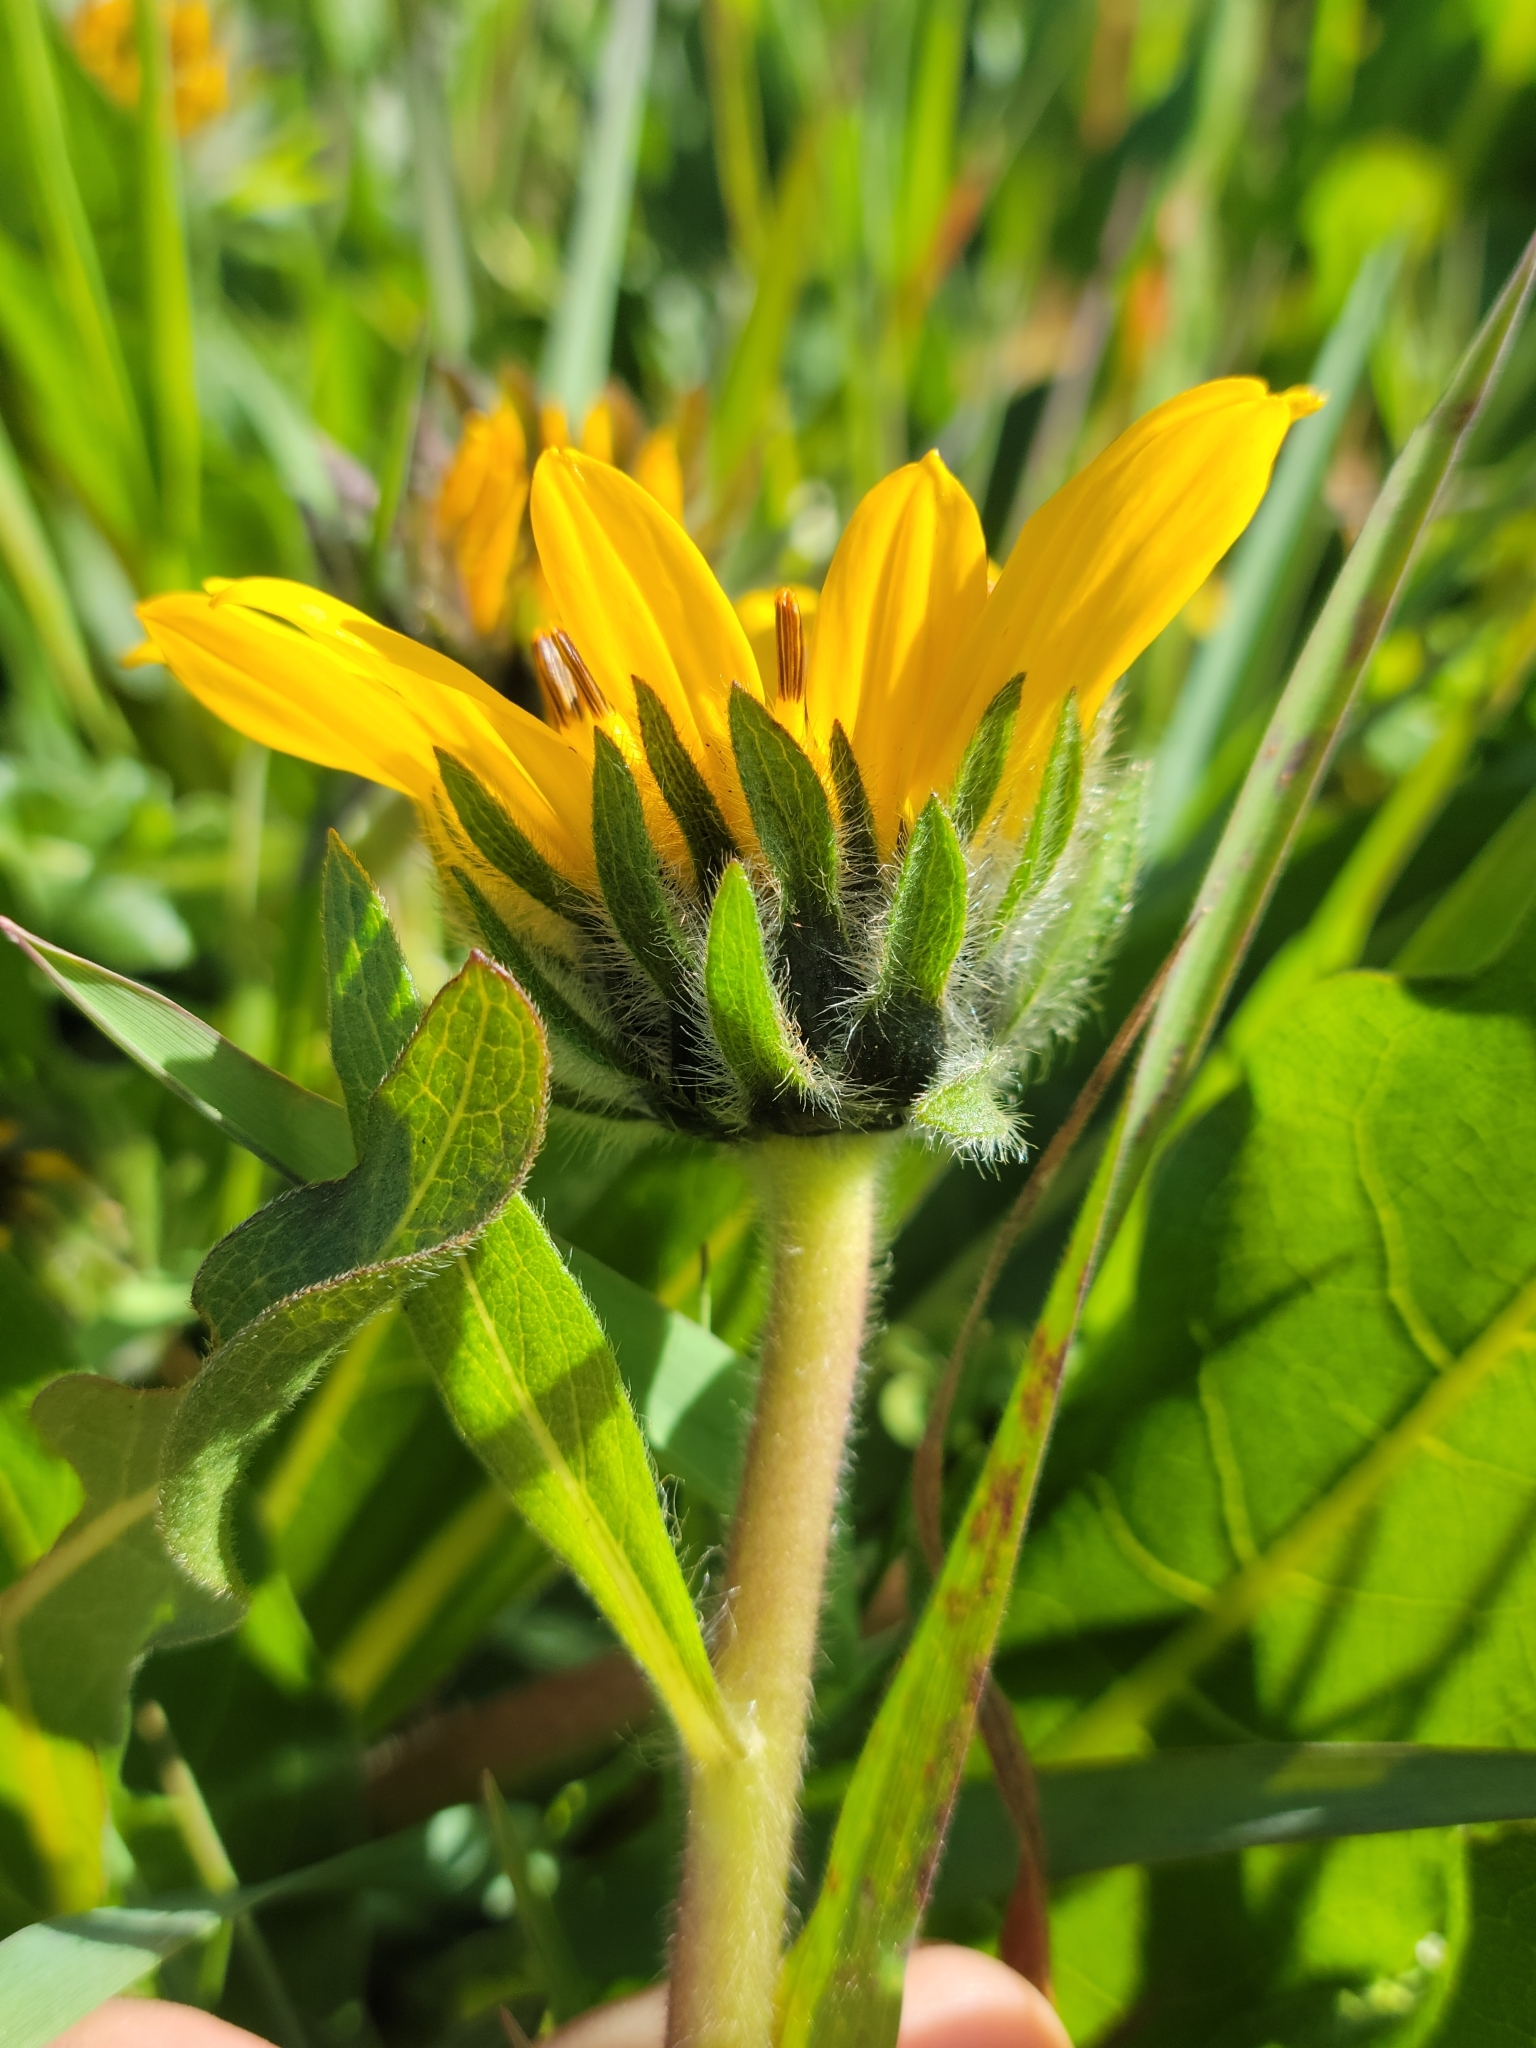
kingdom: Plantae
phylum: Tracheophyta
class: Magnoliopsida
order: Asterales
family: Asteraceae
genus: Wyethia
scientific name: Wyethia angustifolia
